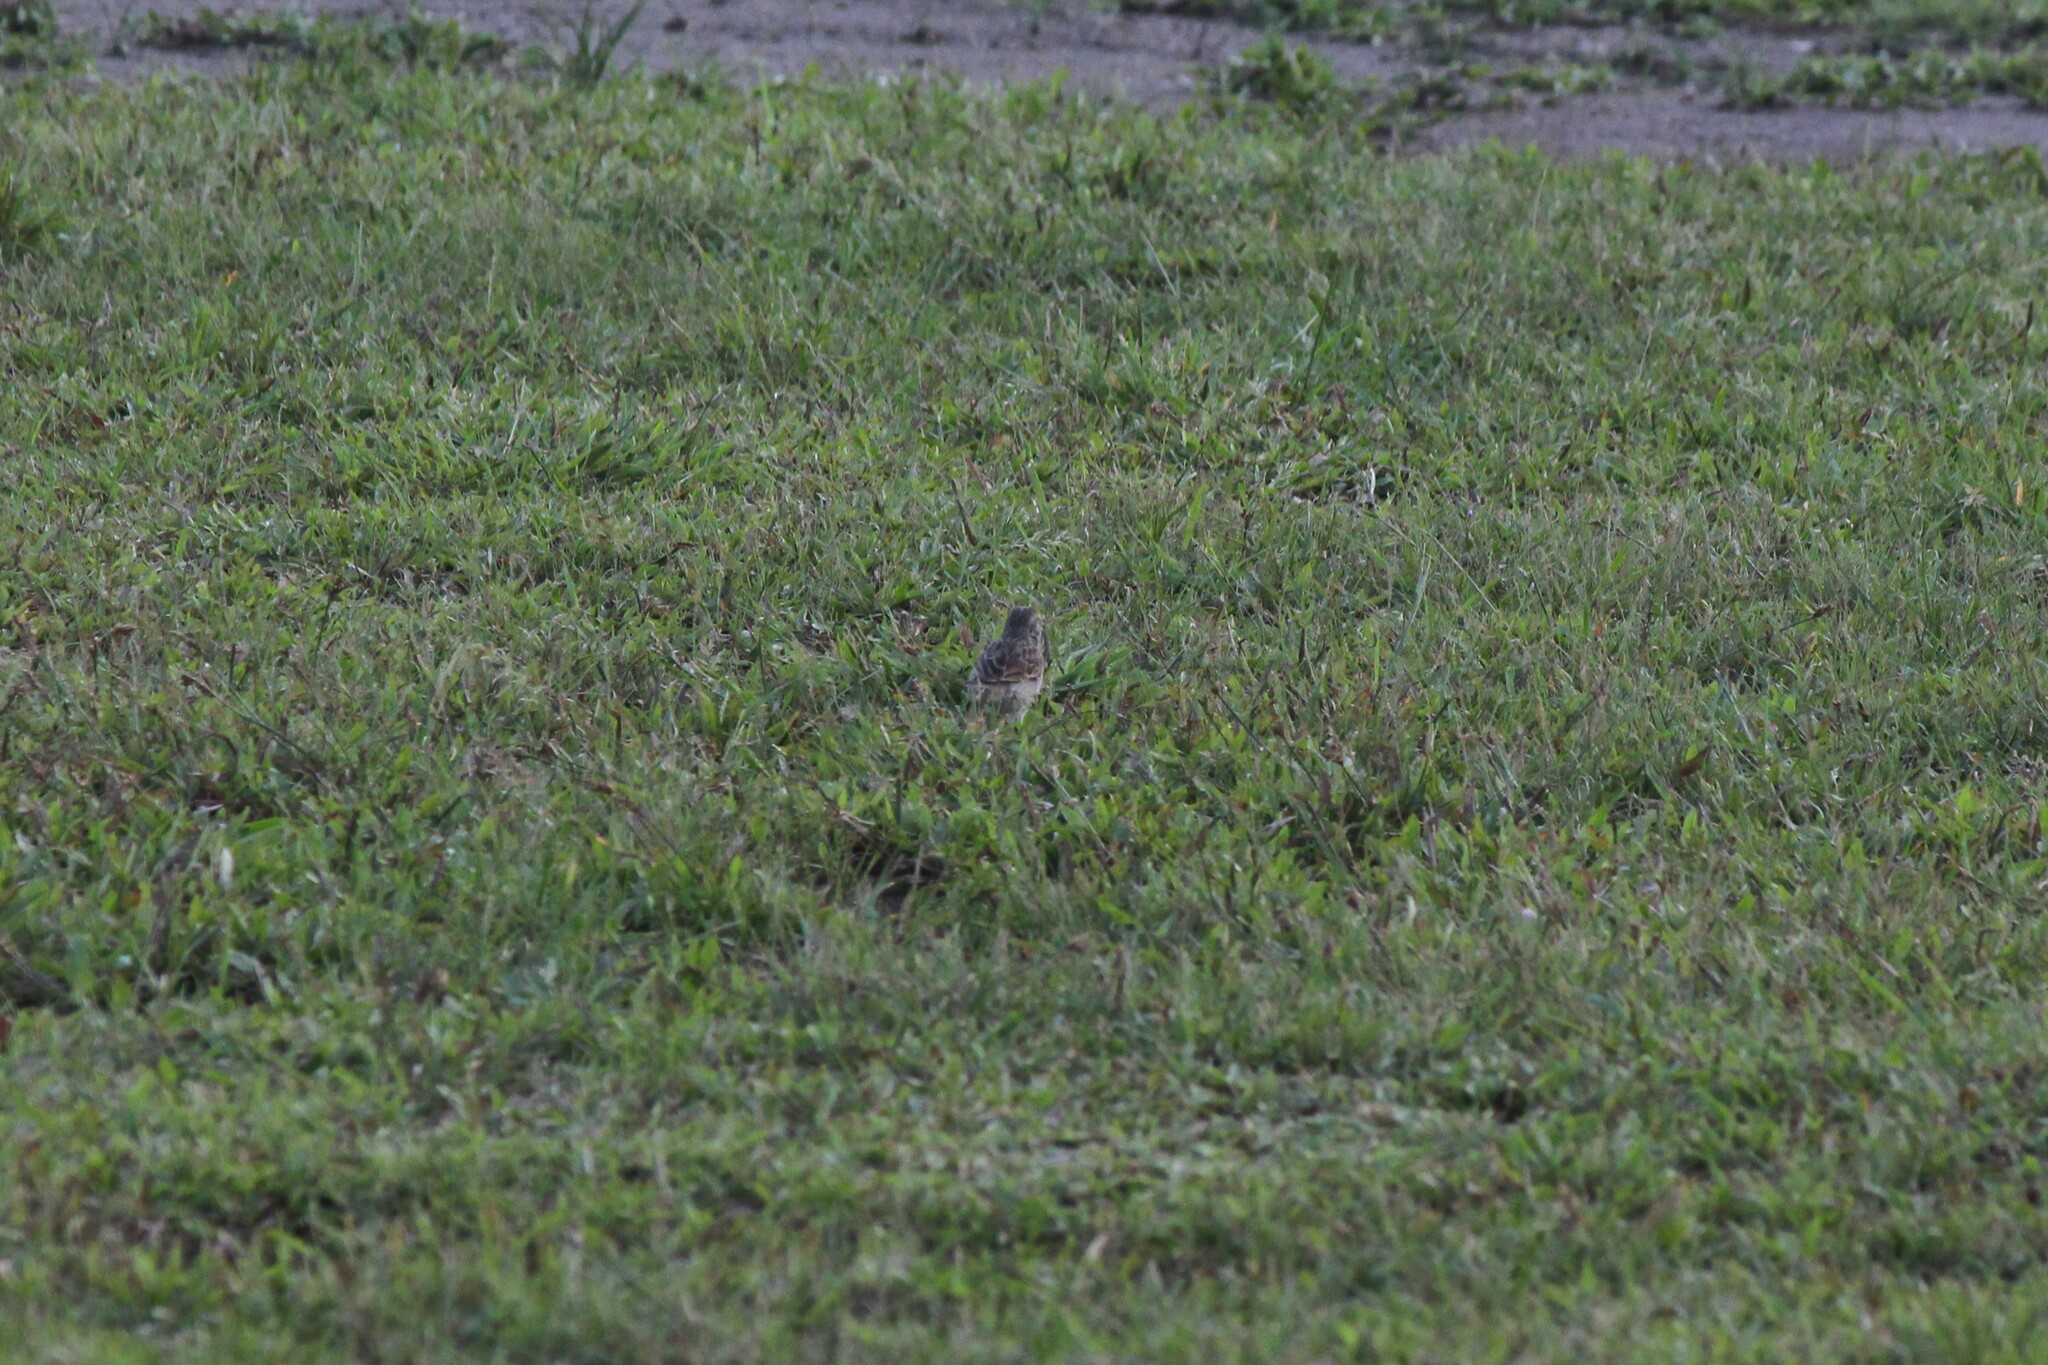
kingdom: Animalia
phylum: Chordata
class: Aves
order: Passeriformes
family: Passerellidae
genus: Ammodramus
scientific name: Ammodramus aurifrons
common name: Yellow-browed sparrow
